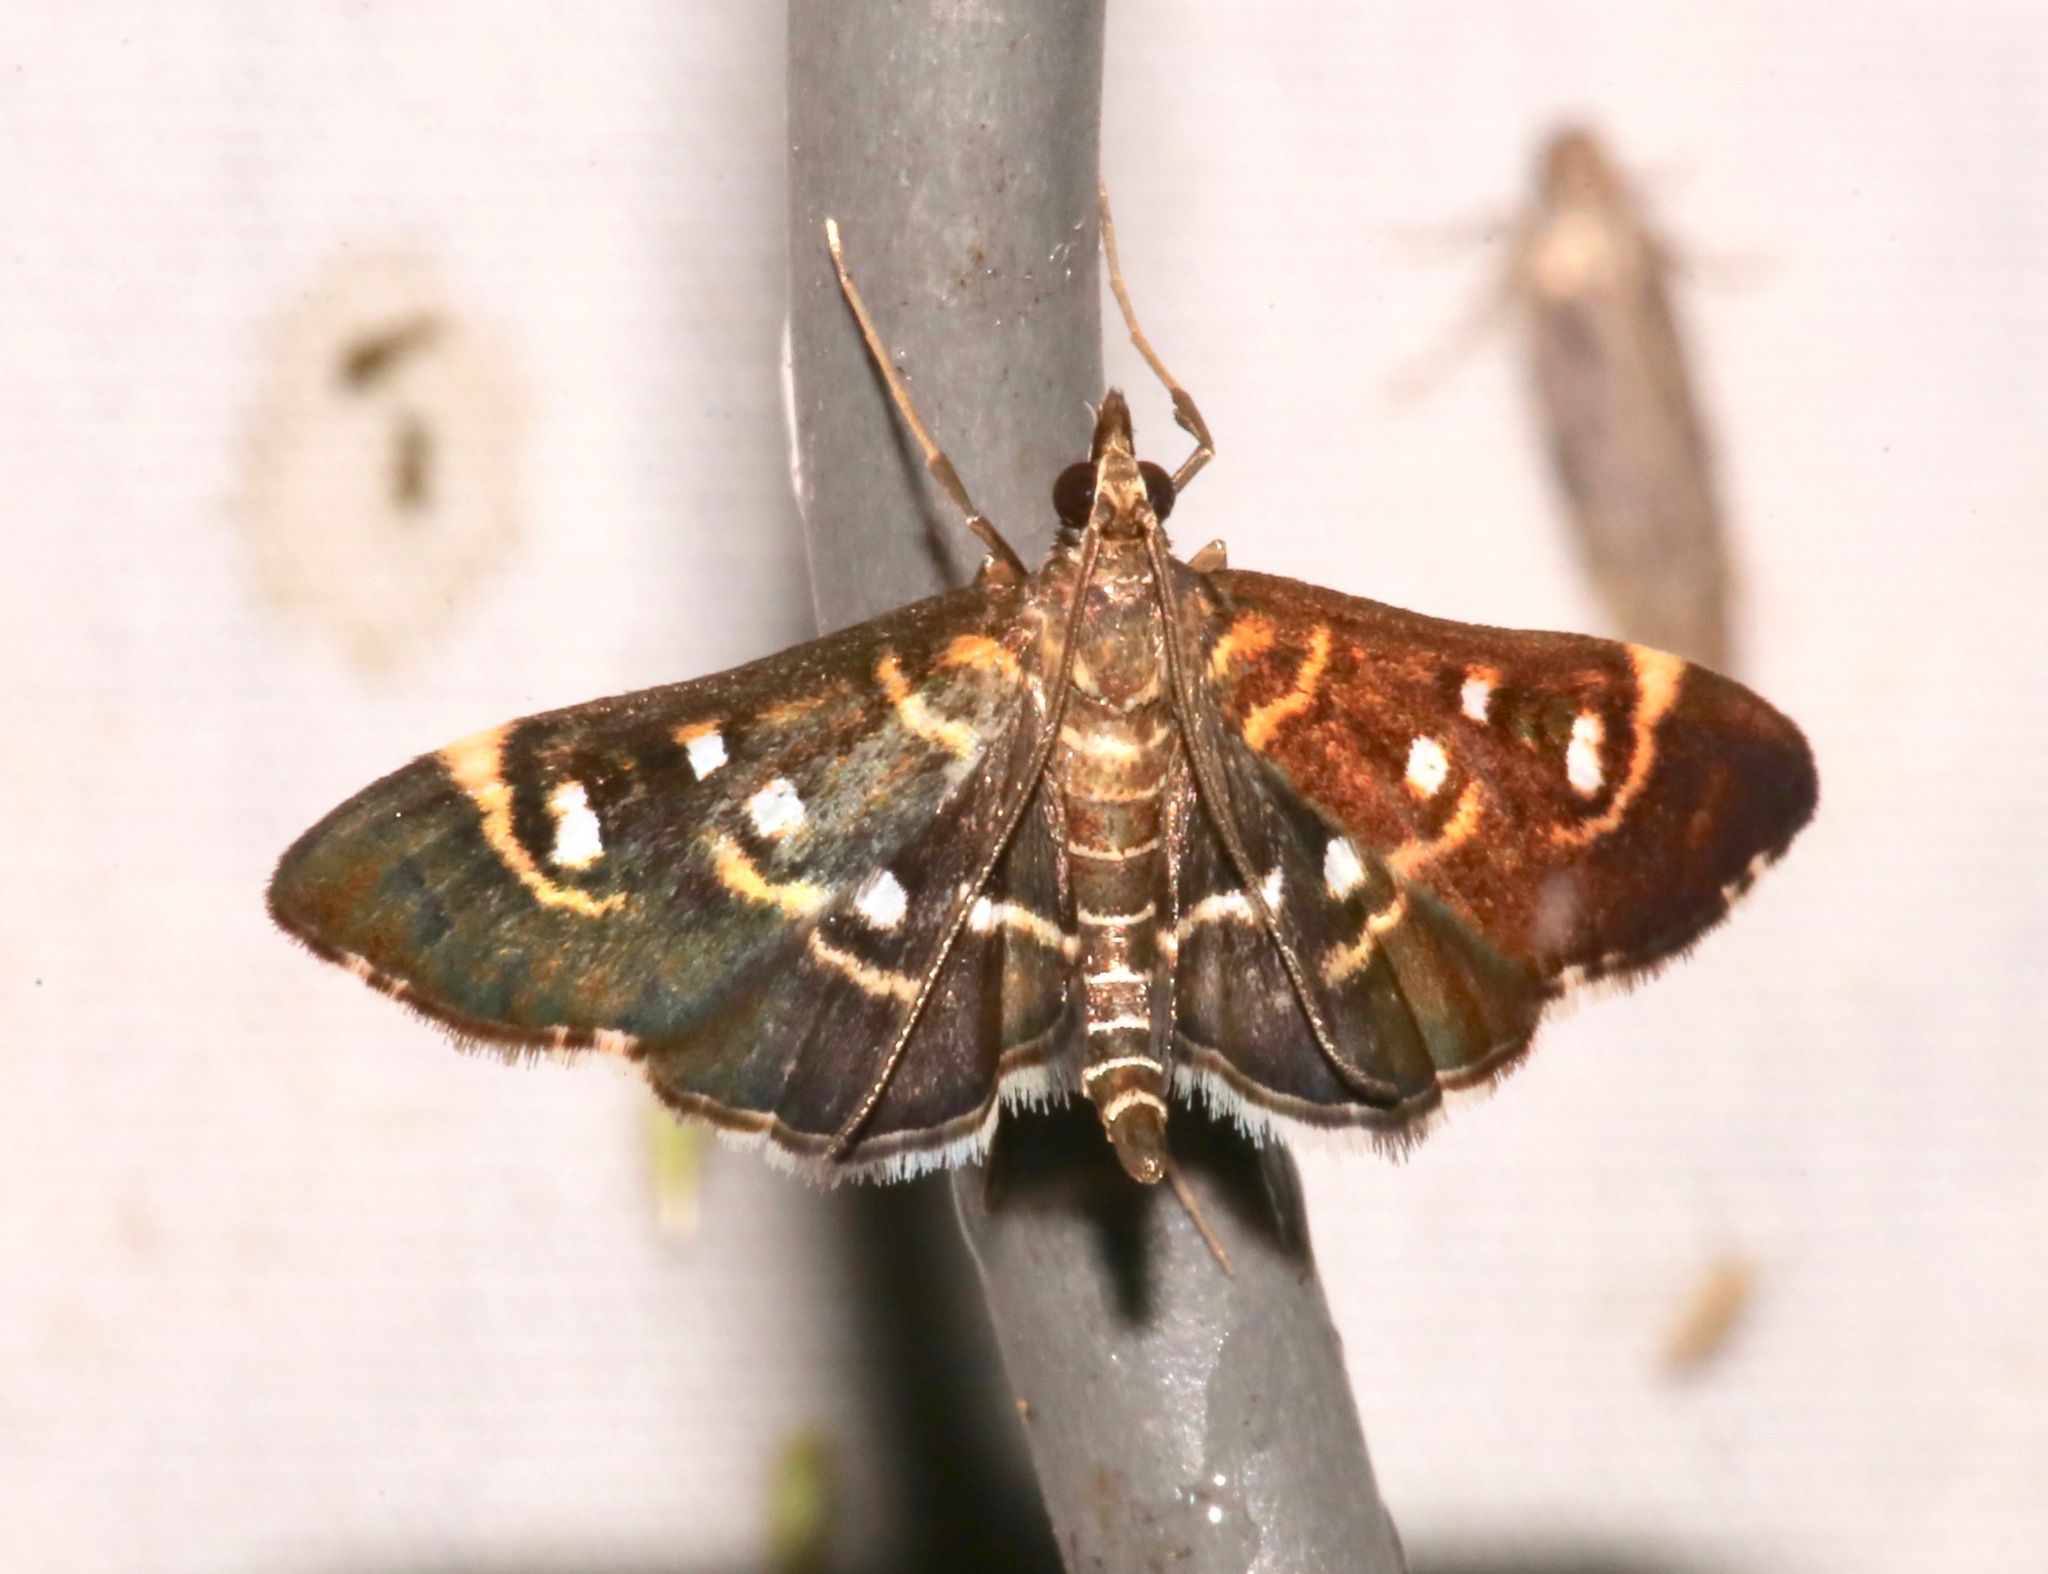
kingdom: Animalia
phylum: Arthropoda
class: Insecta
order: Lepidoptera
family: Crambidae
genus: Diathrausta
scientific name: Diathrausta harlequinalis
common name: Harlequin webworm moth
